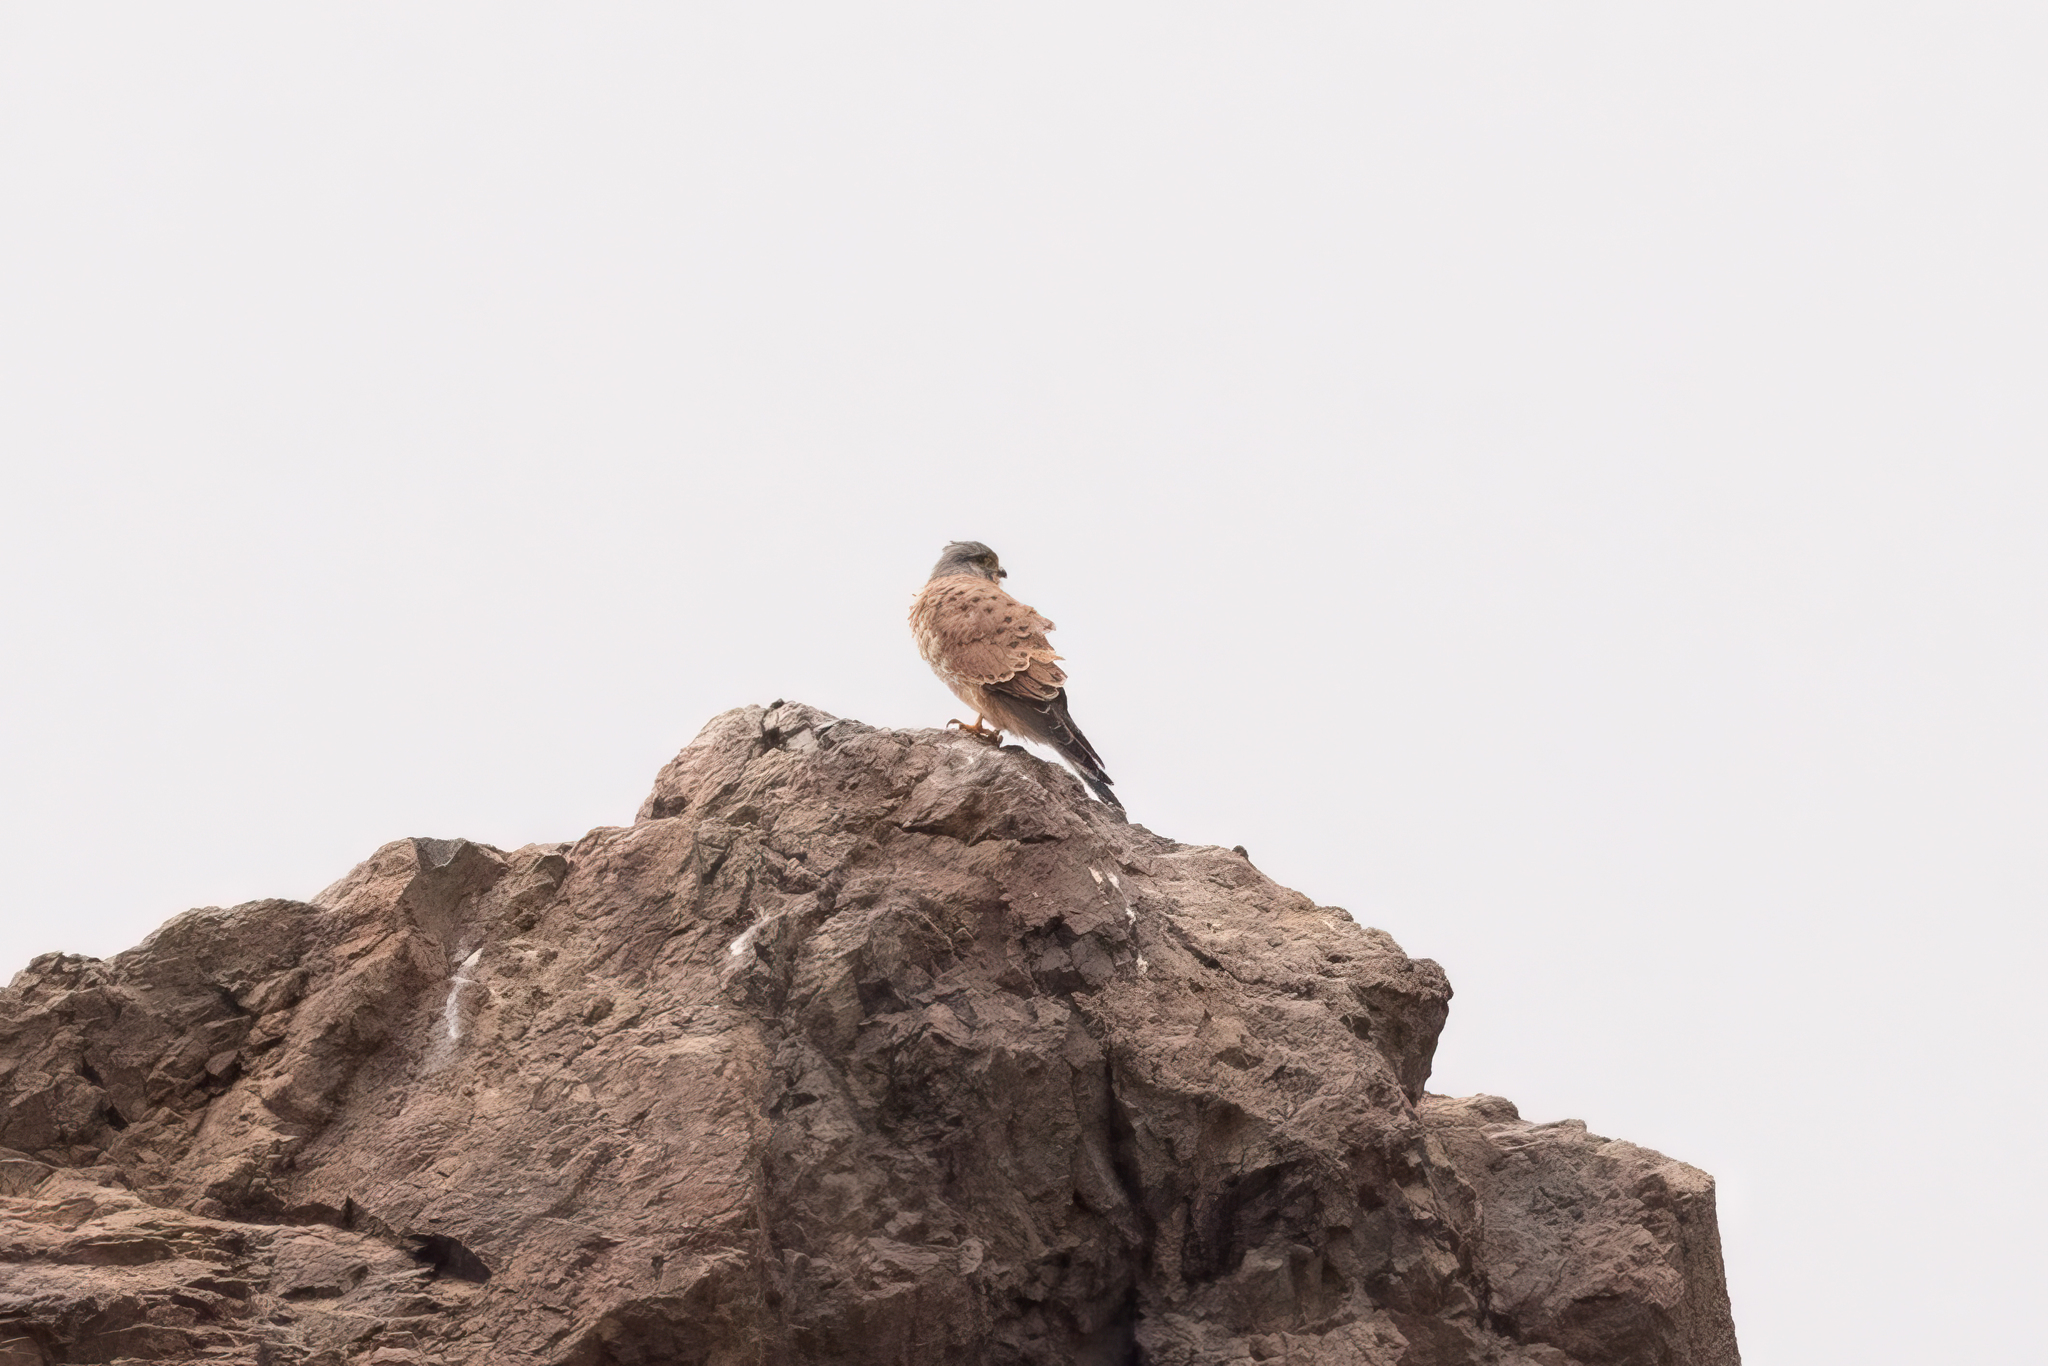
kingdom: Animalia
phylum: Chordata
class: Aves
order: Falconiformes
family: Falconidae
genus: Falco
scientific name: Falco tinnunculus
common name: Common kestrel
